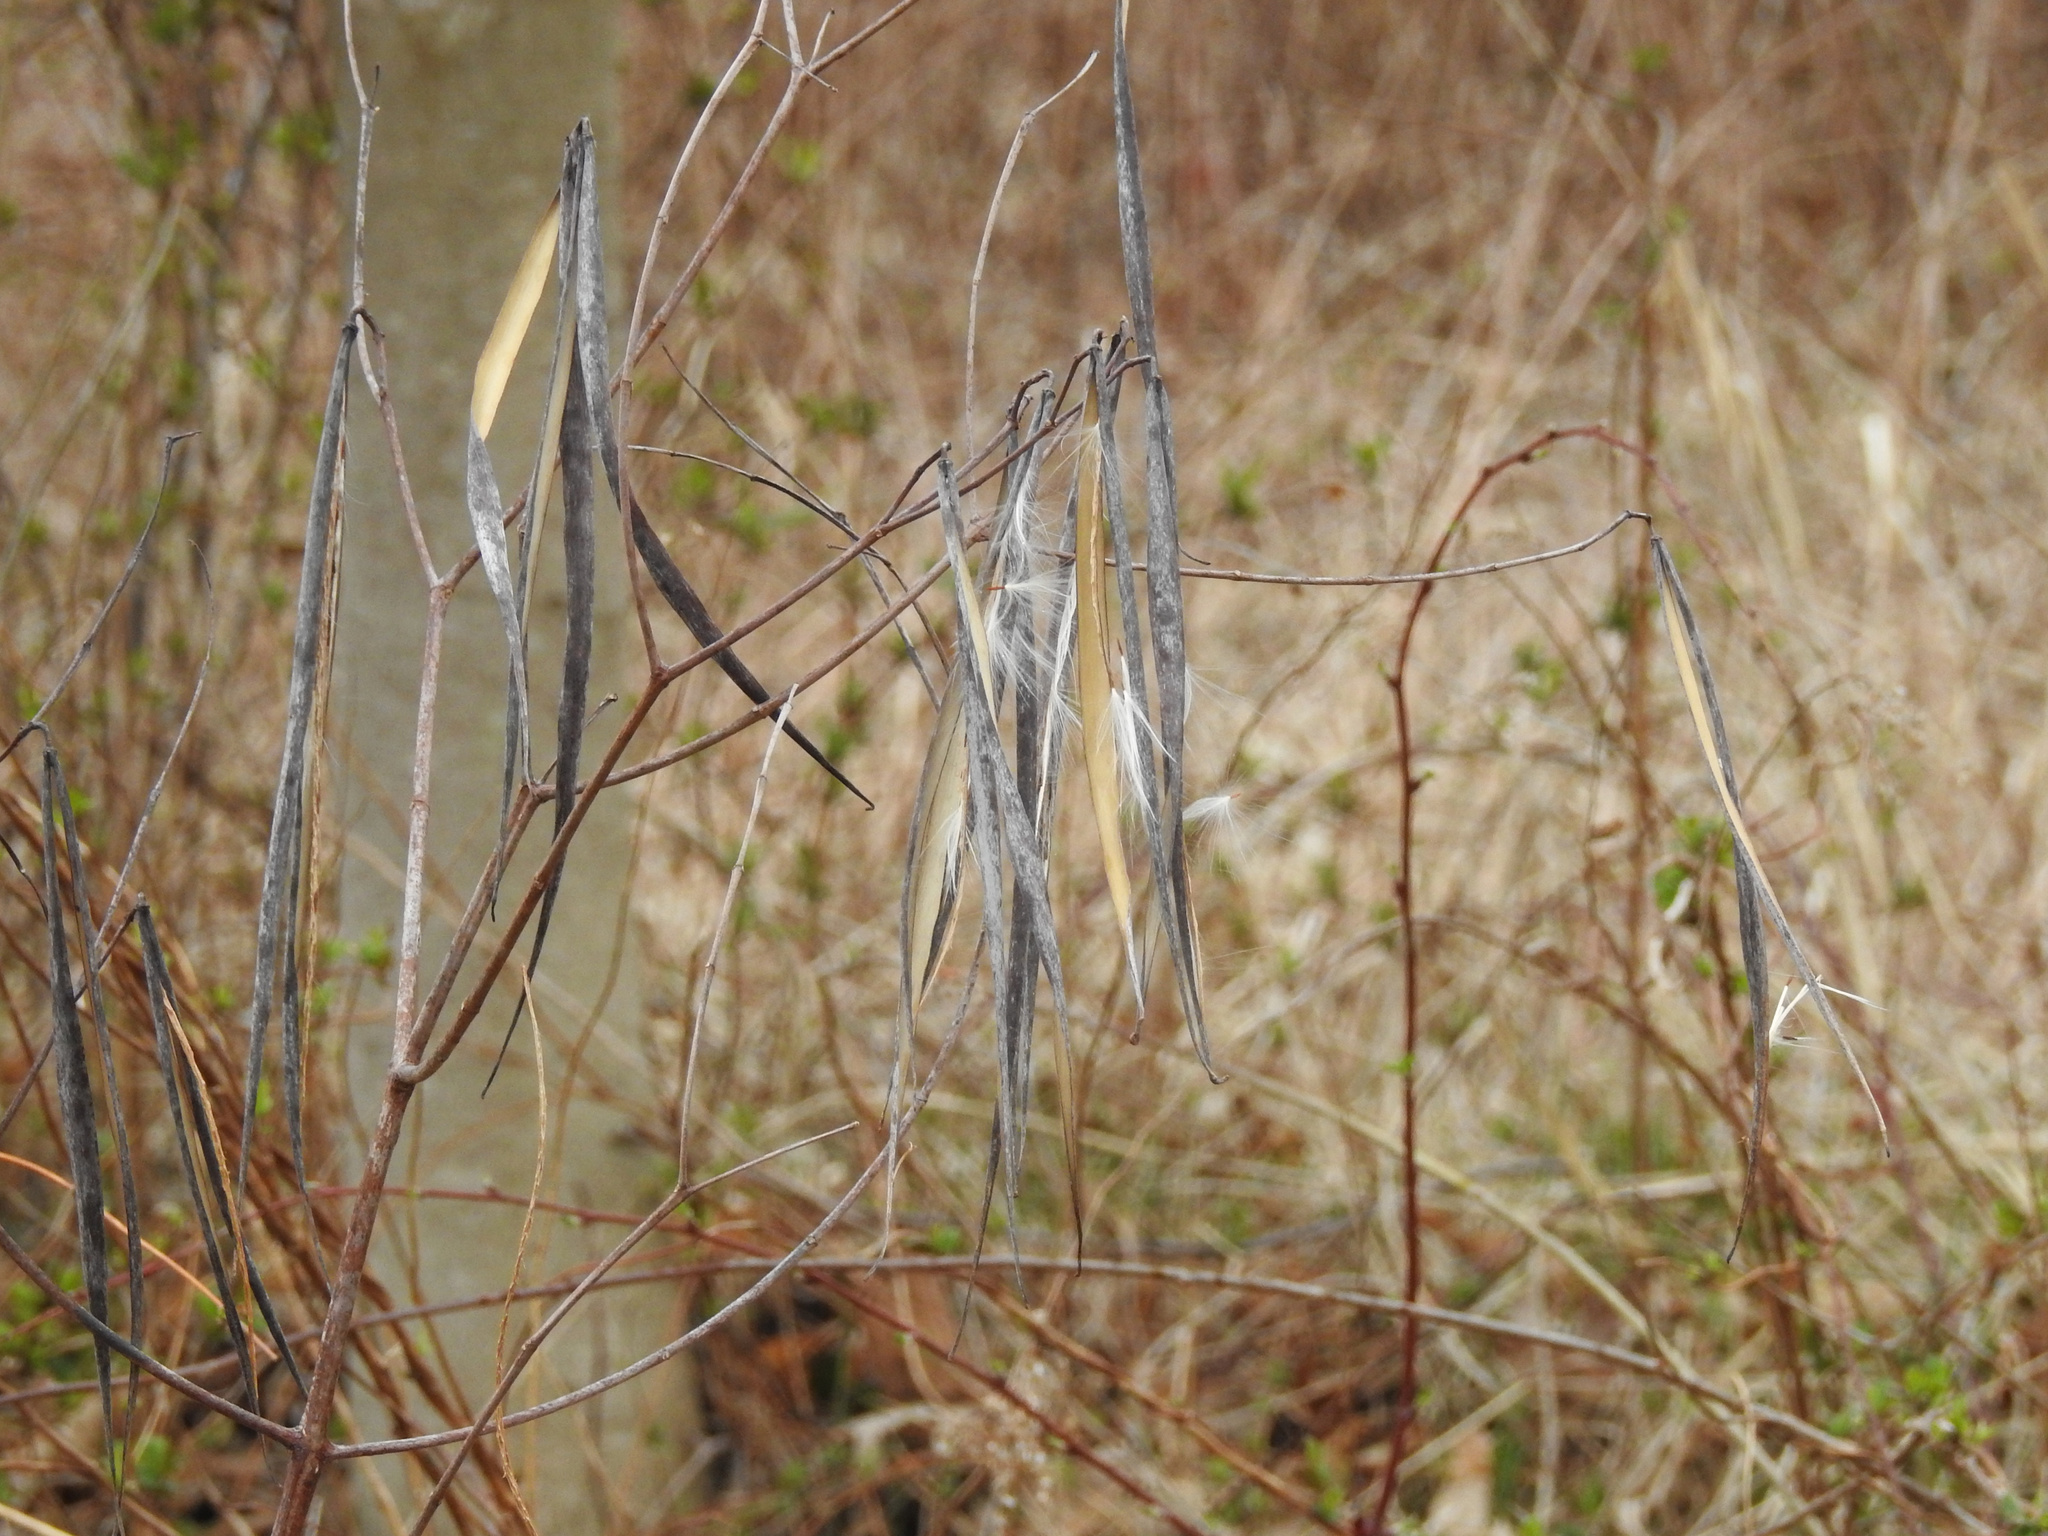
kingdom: Plantae
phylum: Tracheophyta
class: Magnoliopsida
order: Gentianales
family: Apocynaceae
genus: Apocynum
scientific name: Apocynum cannabinum
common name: Hemp dogbane
